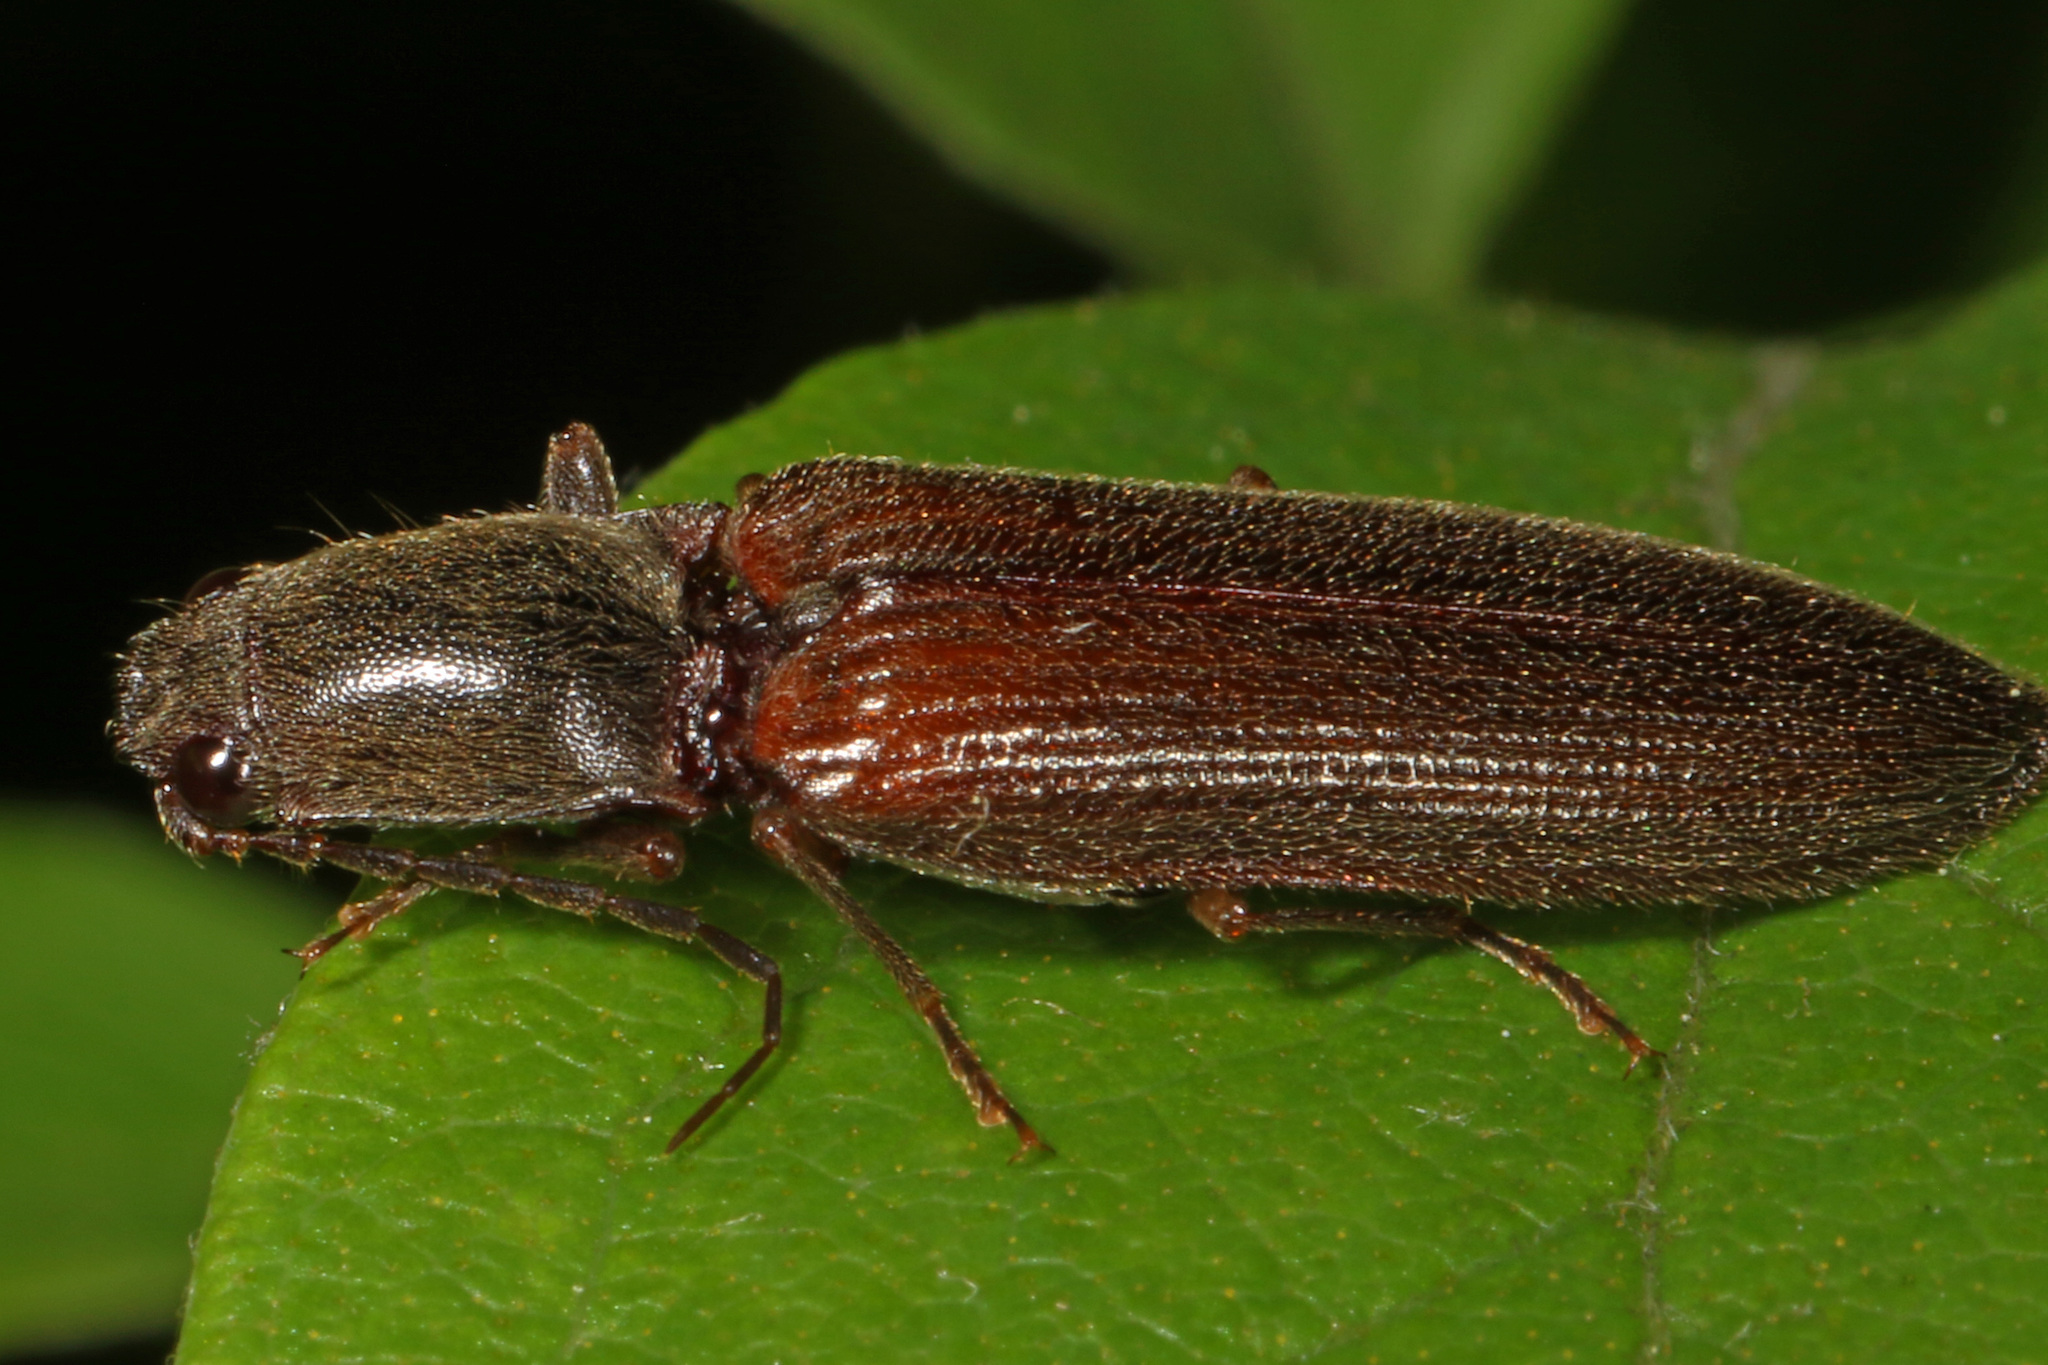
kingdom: Animalia
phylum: Arthropoda
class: Insecta
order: Coleoptera
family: Elateridae
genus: Athous
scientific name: Athous brightwelli
